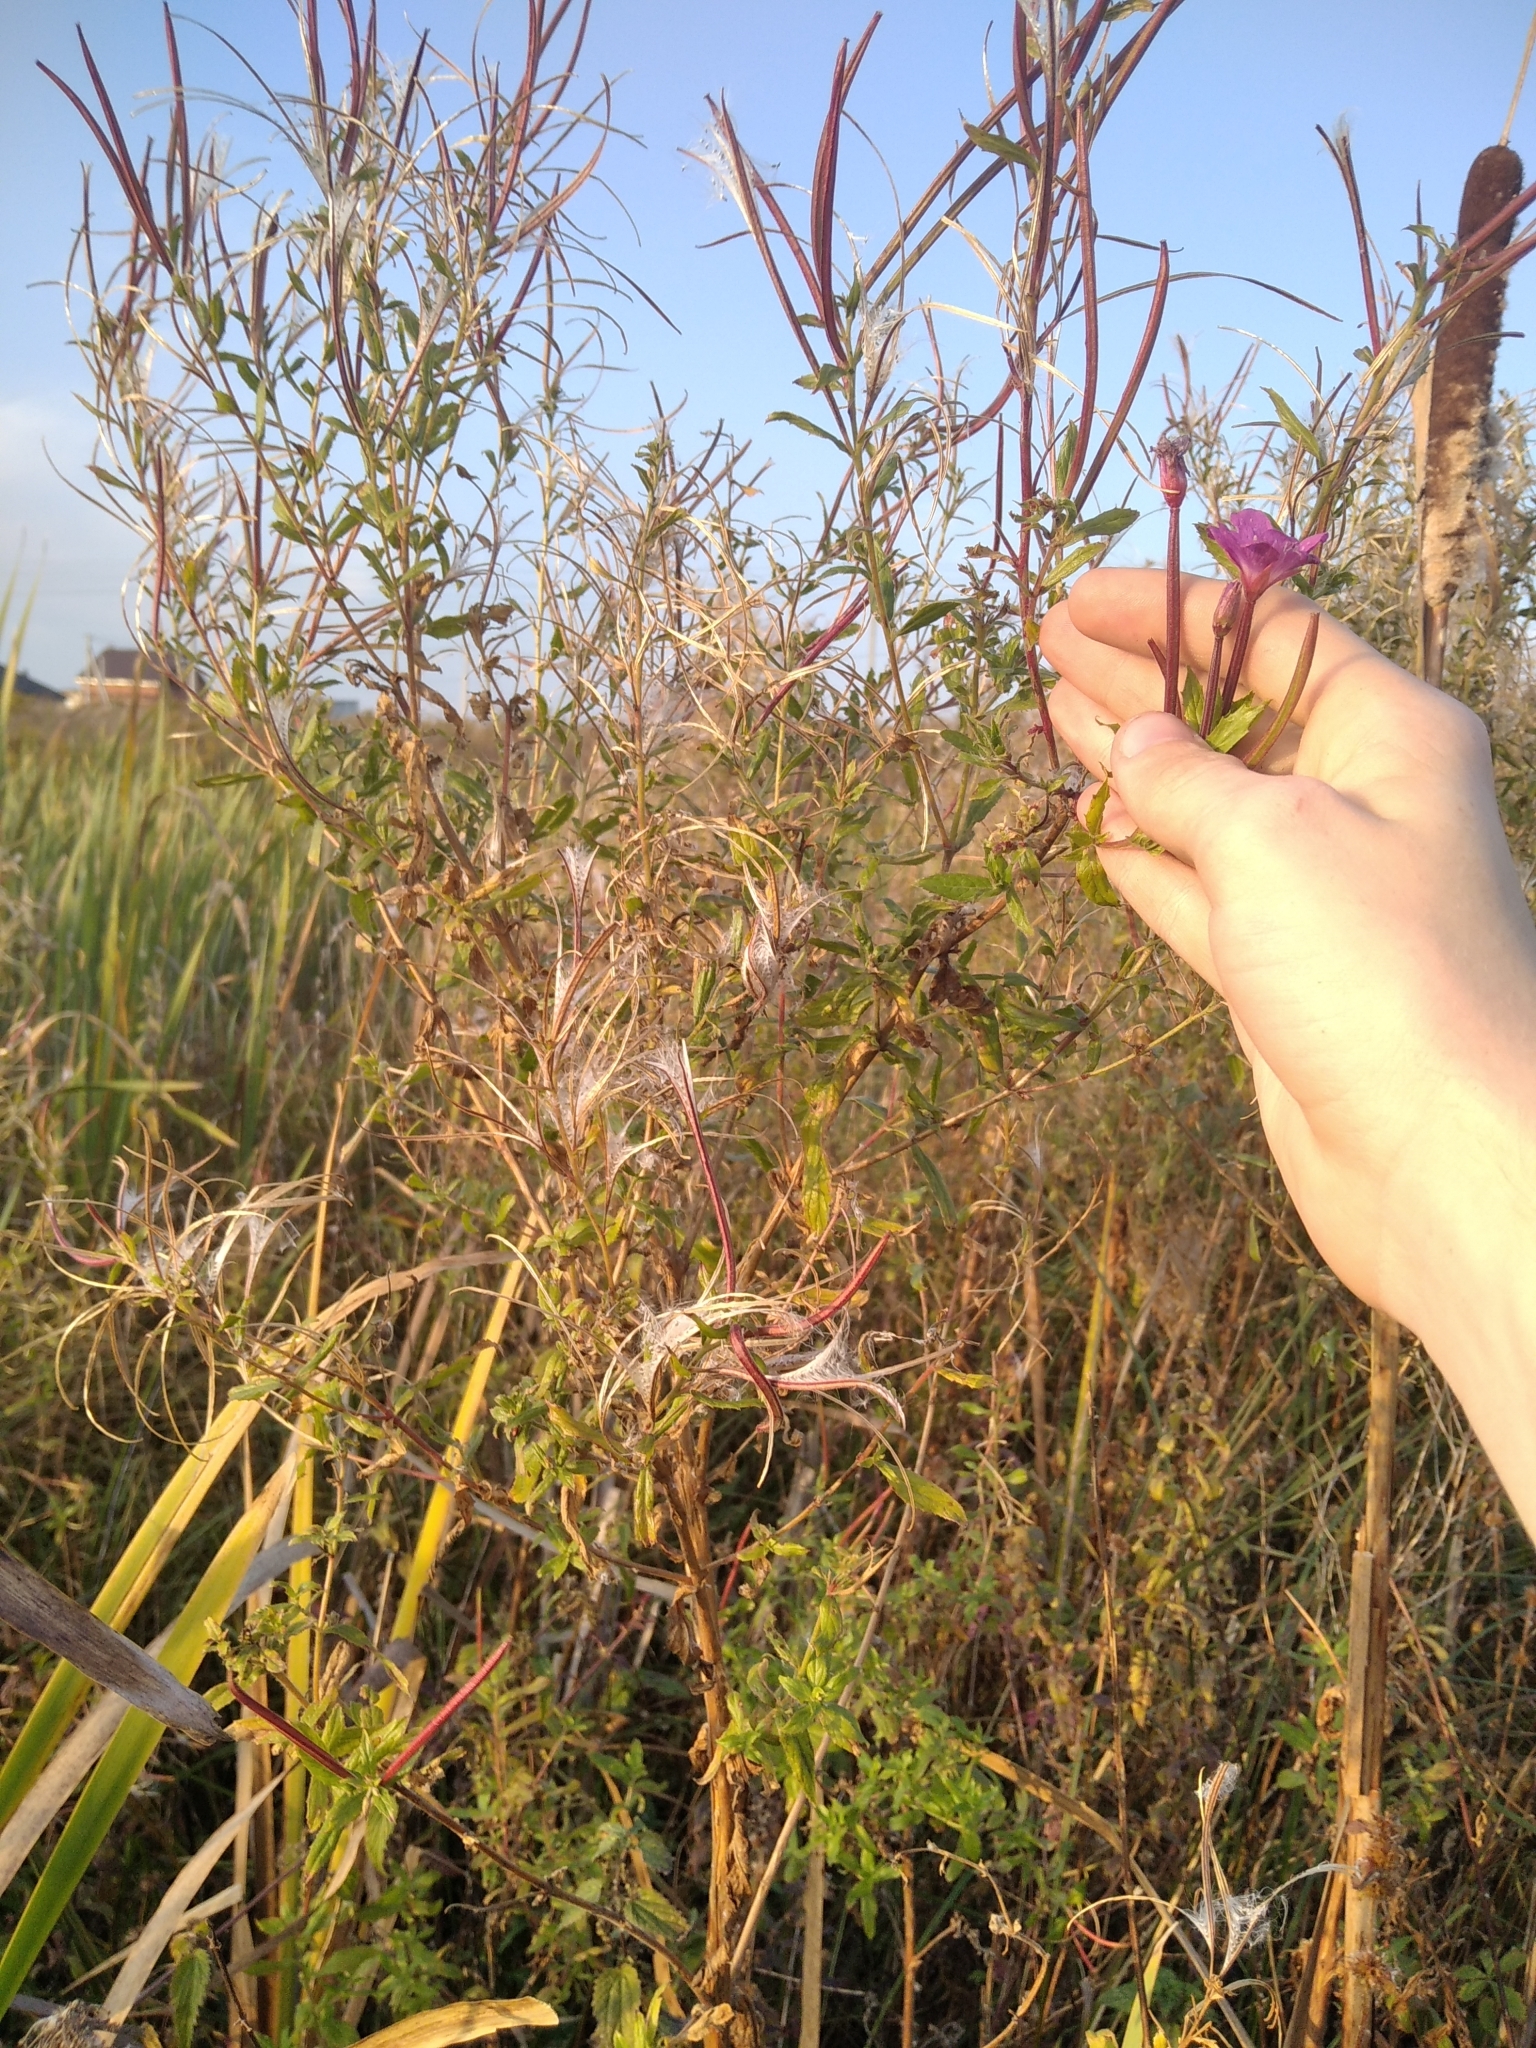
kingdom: Plantae
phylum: Tracheophyta
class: Magnoliopsida
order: Myrtales
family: Onagraceae
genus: Epilobium
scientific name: Epilobium hirsutum
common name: Great willowherb
